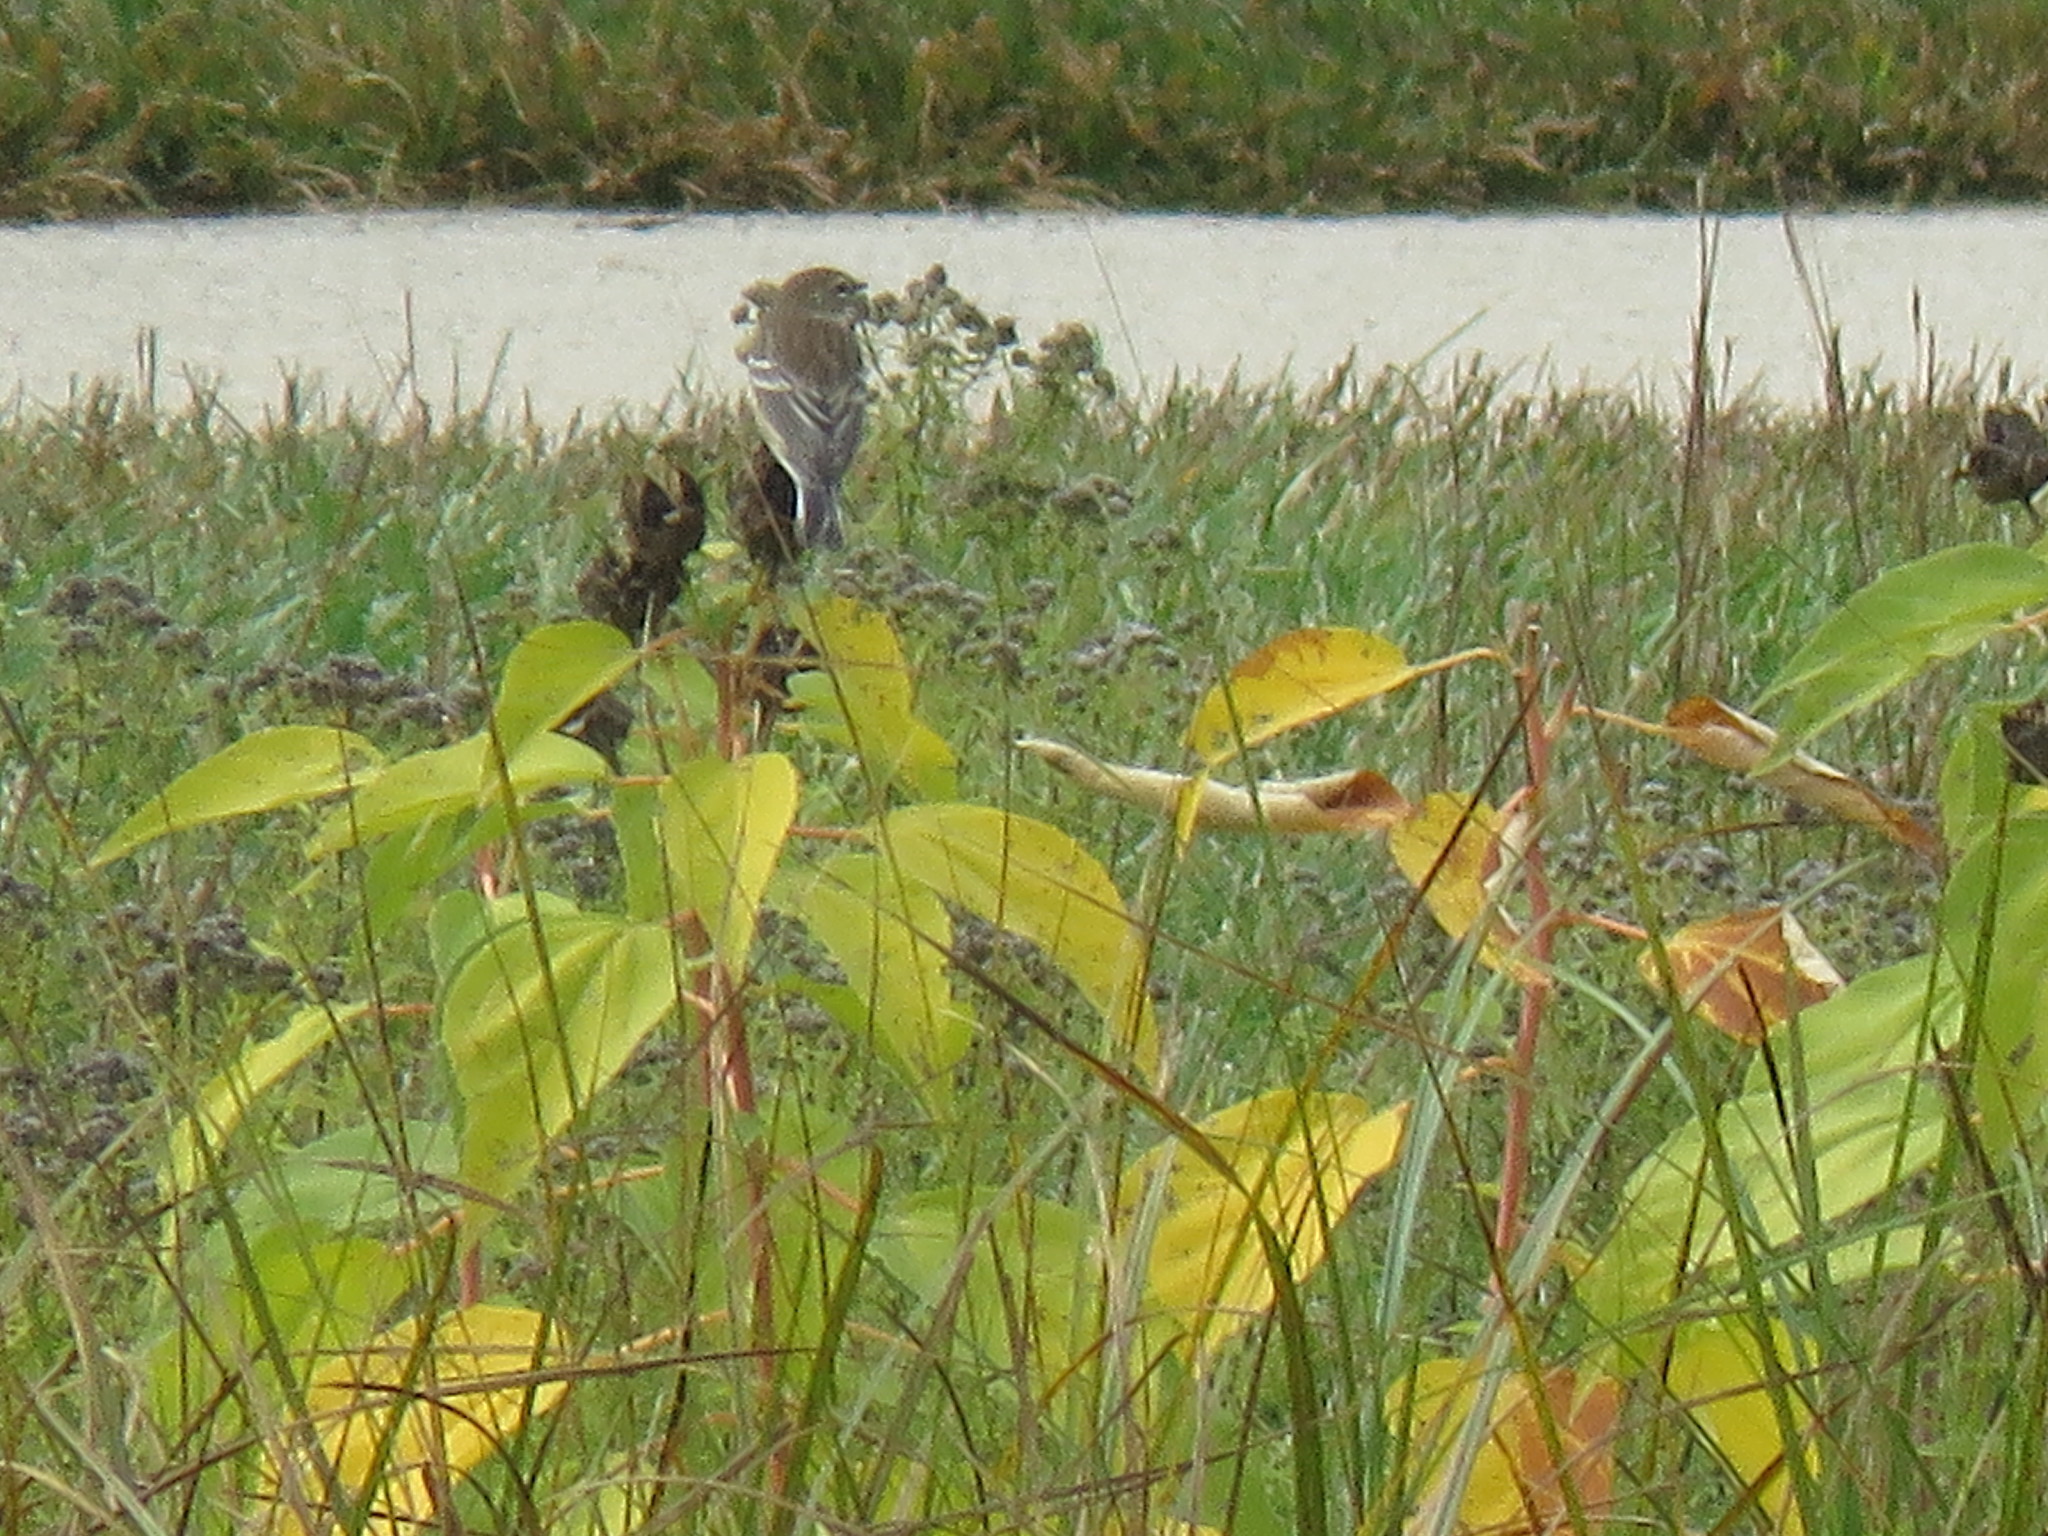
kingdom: Animalia
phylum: Chordata
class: Aves
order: Passeriformes
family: Parulidae
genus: Setophaga
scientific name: Setophaga coronata
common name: Myrtle warbler
